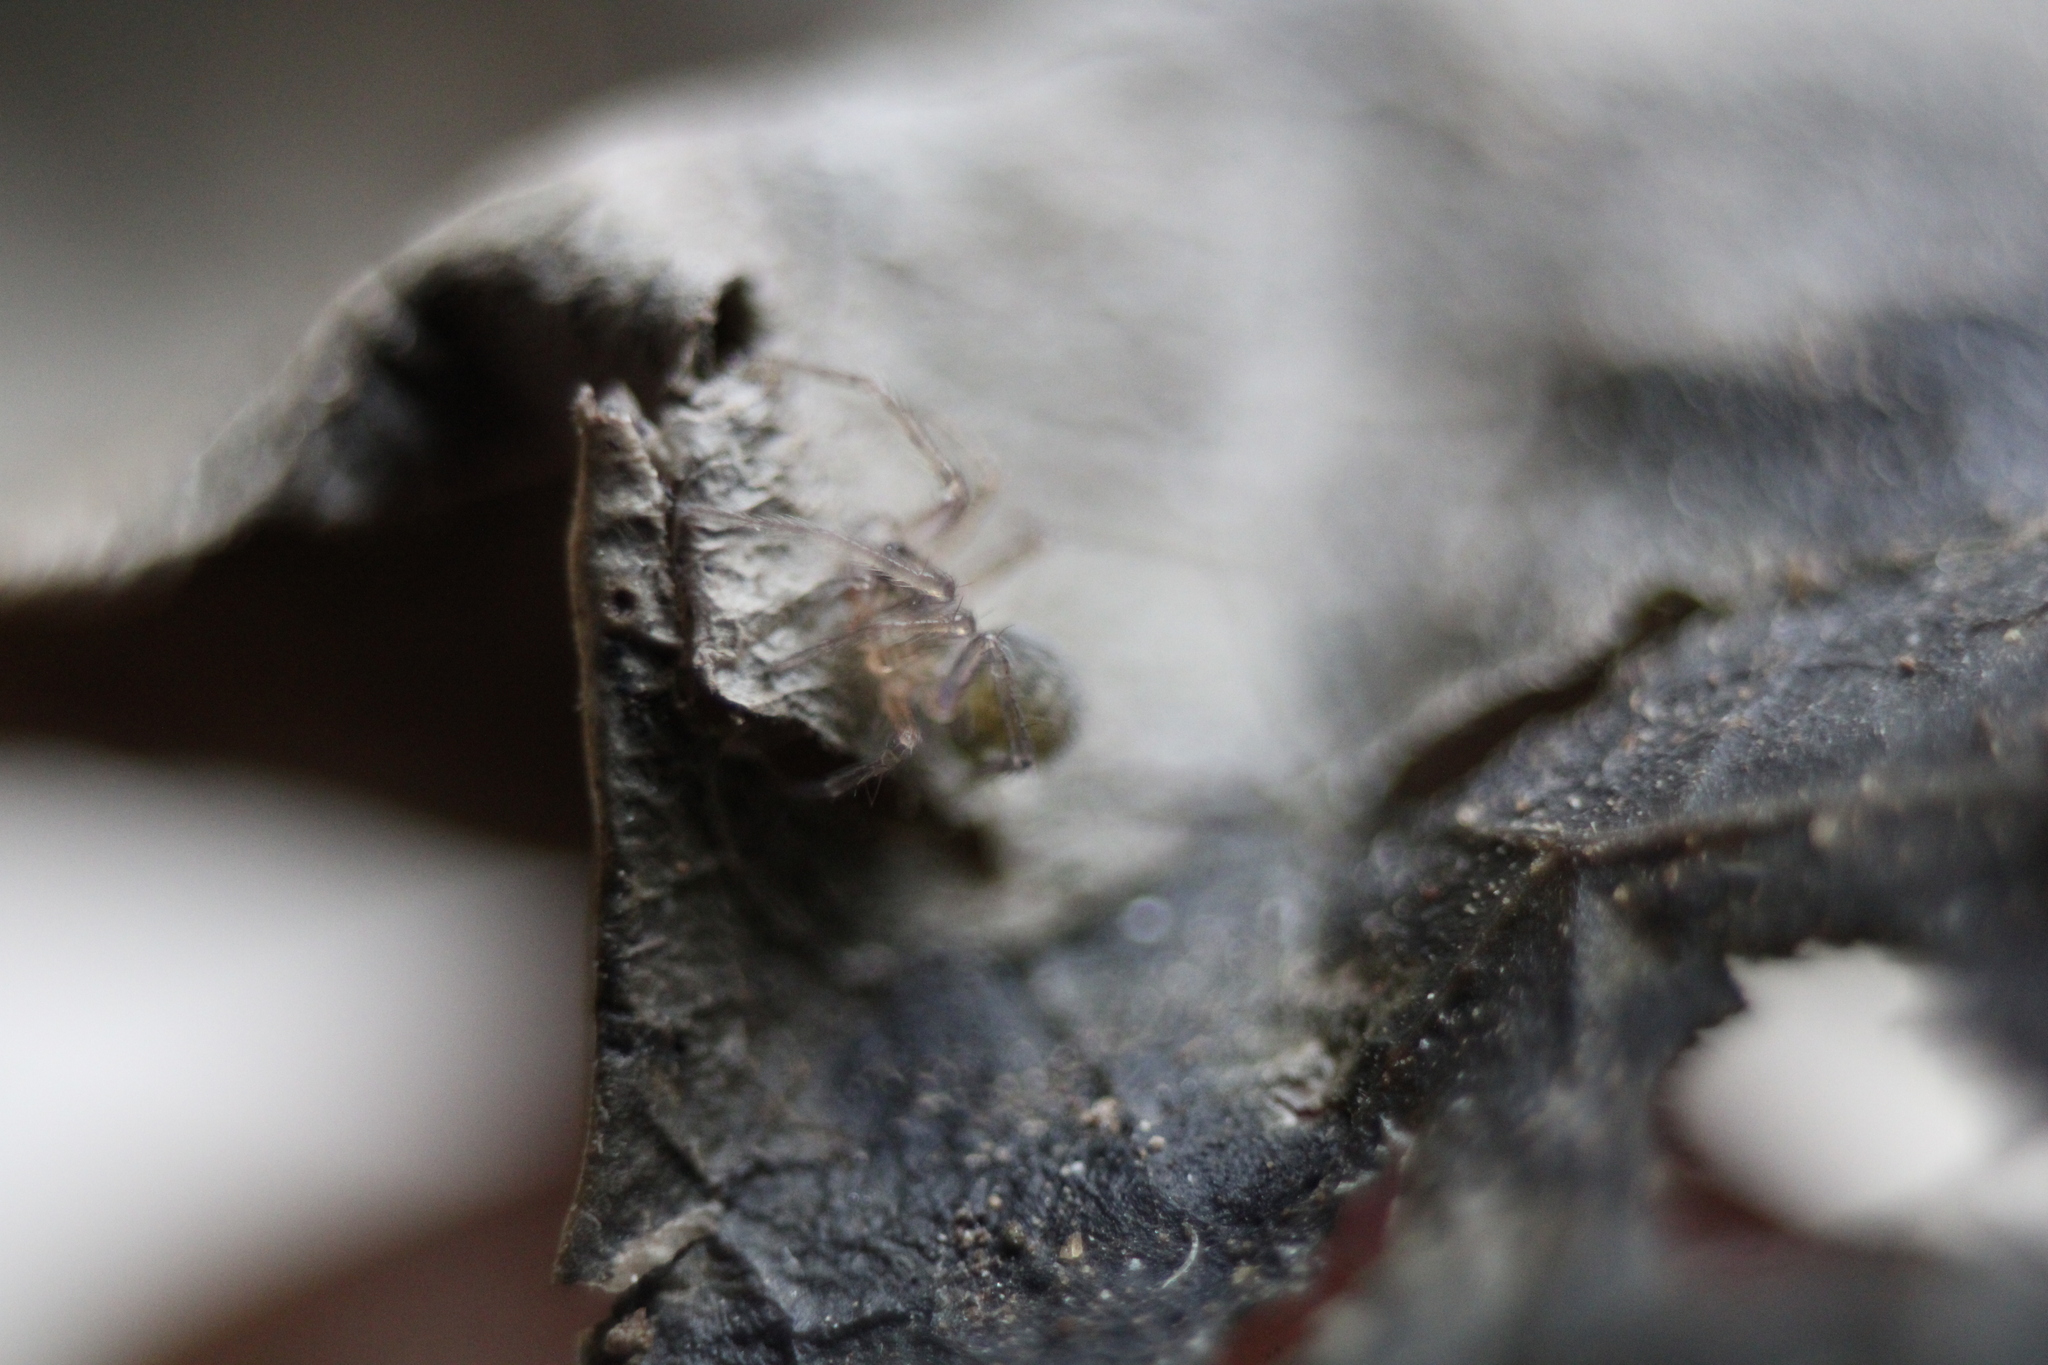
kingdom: Animalia
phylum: Arthropoda
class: Arachnida
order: Araneae
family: Agelenidae
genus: Tegenaria
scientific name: Tegenaria domestica
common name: Barn funnel weaver
